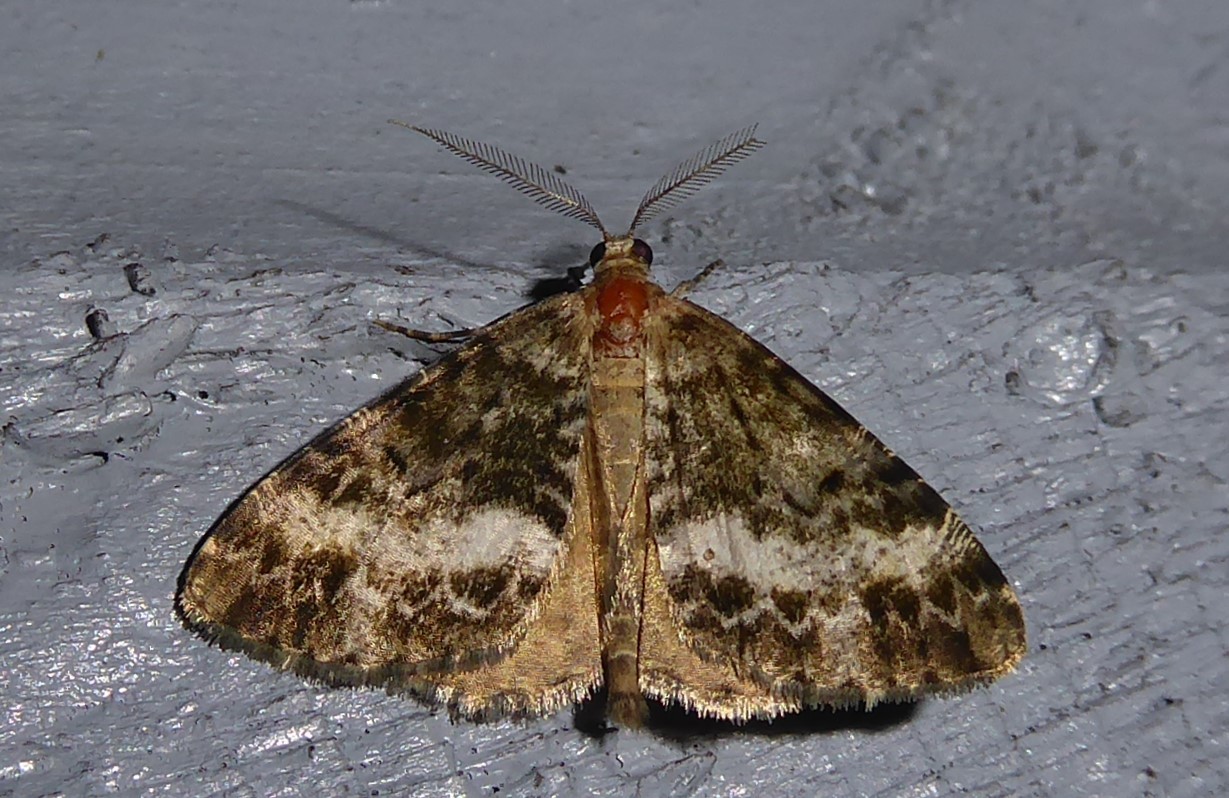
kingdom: Animalia
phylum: Arthropoda
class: Insecta
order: Lepidoptera
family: Geometridae
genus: Pseudocoremia
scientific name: Pseudocoremia lactiflua
